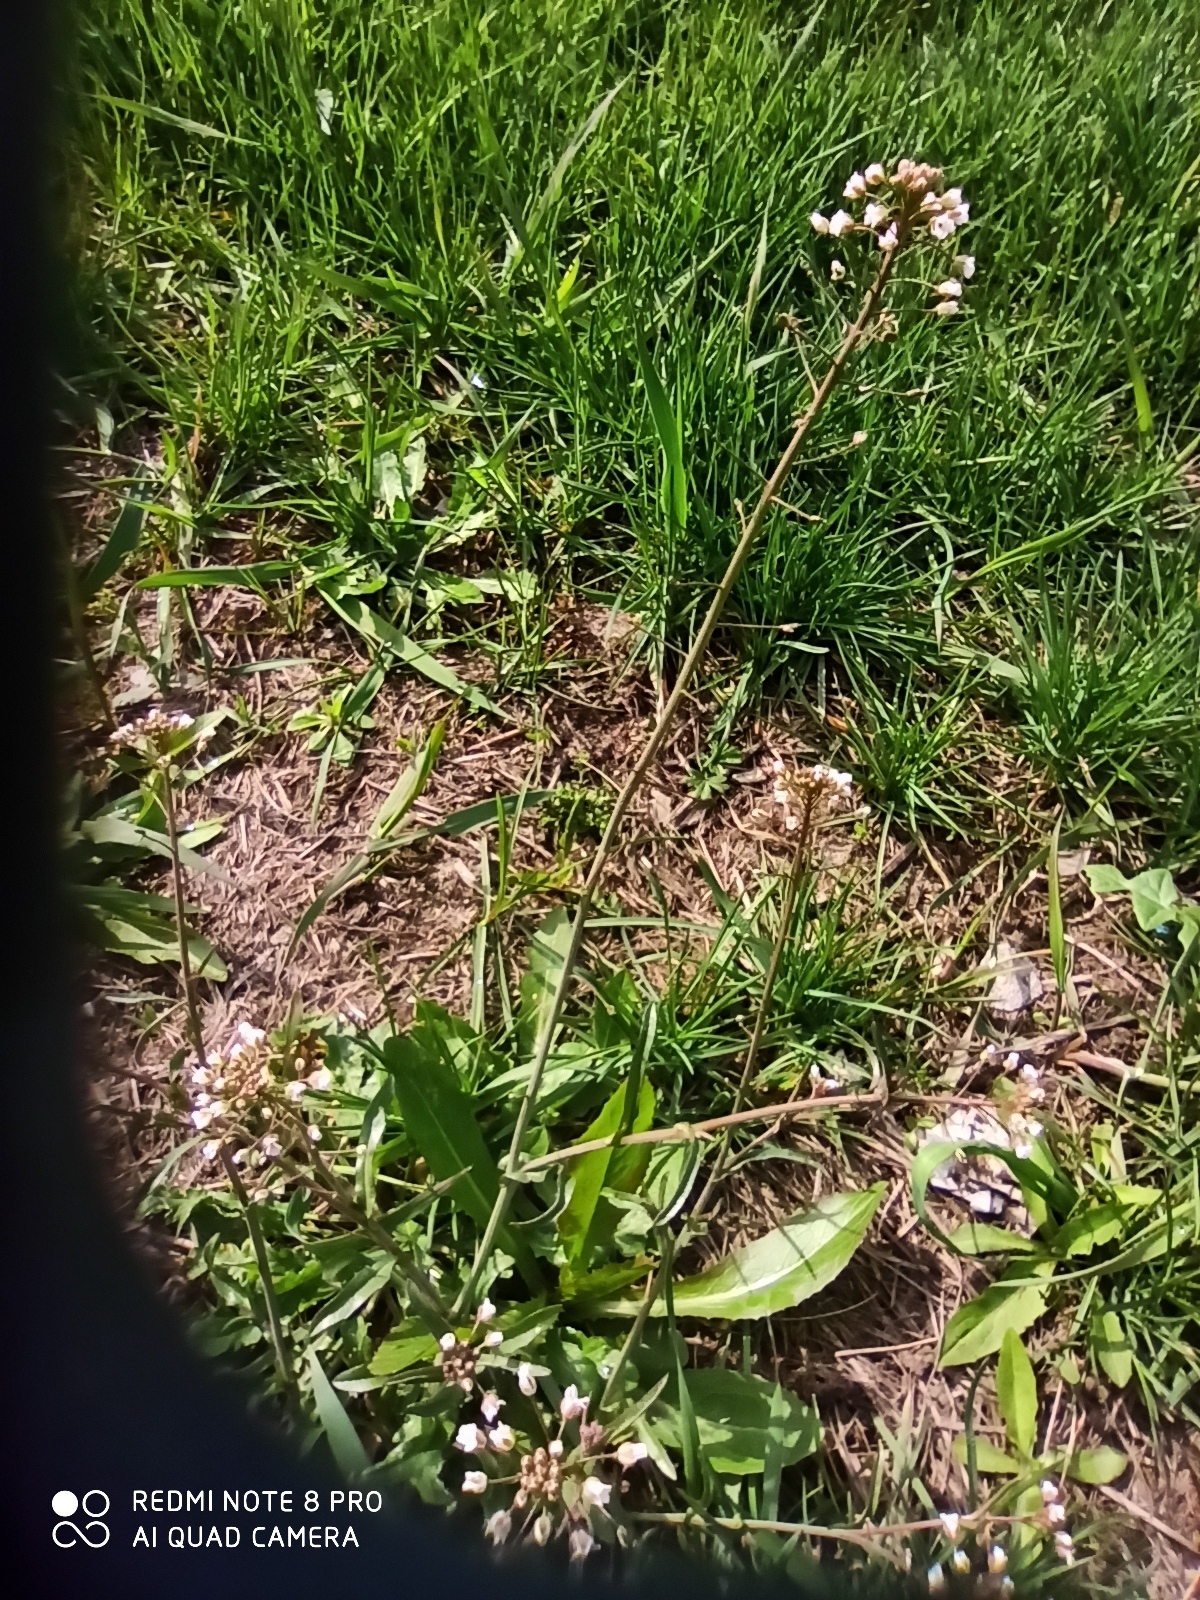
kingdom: Plantae
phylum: Tracheophyta
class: Magnoliopsida
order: Brassicales
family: Brassicaceae
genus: Capsella
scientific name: Capsella bursa-pastoris
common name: Shepherd's purse
